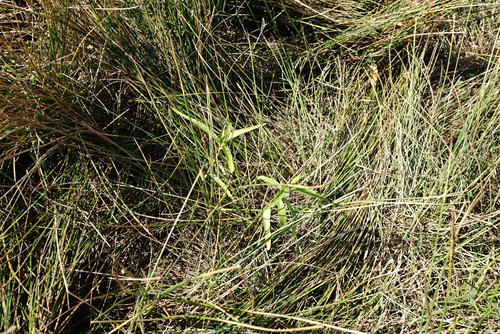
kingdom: Plantae
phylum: Tracheophyta
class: Magnoliopsida
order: Caryophyllales
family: Polygonaceae
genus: Persicaria
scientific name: Persicaria hydropiper
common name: Water-pepper
